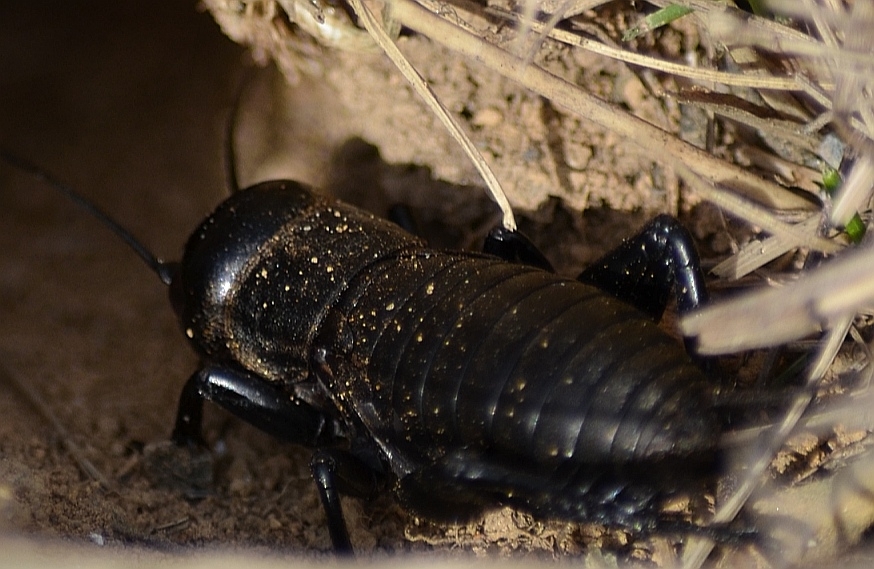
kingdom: Animalia
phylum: Arthropoda
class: Insecta
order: Orthoptera
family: Gryllidae
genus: Gryllus
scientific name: Gryllus campestris
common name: Field cricket
